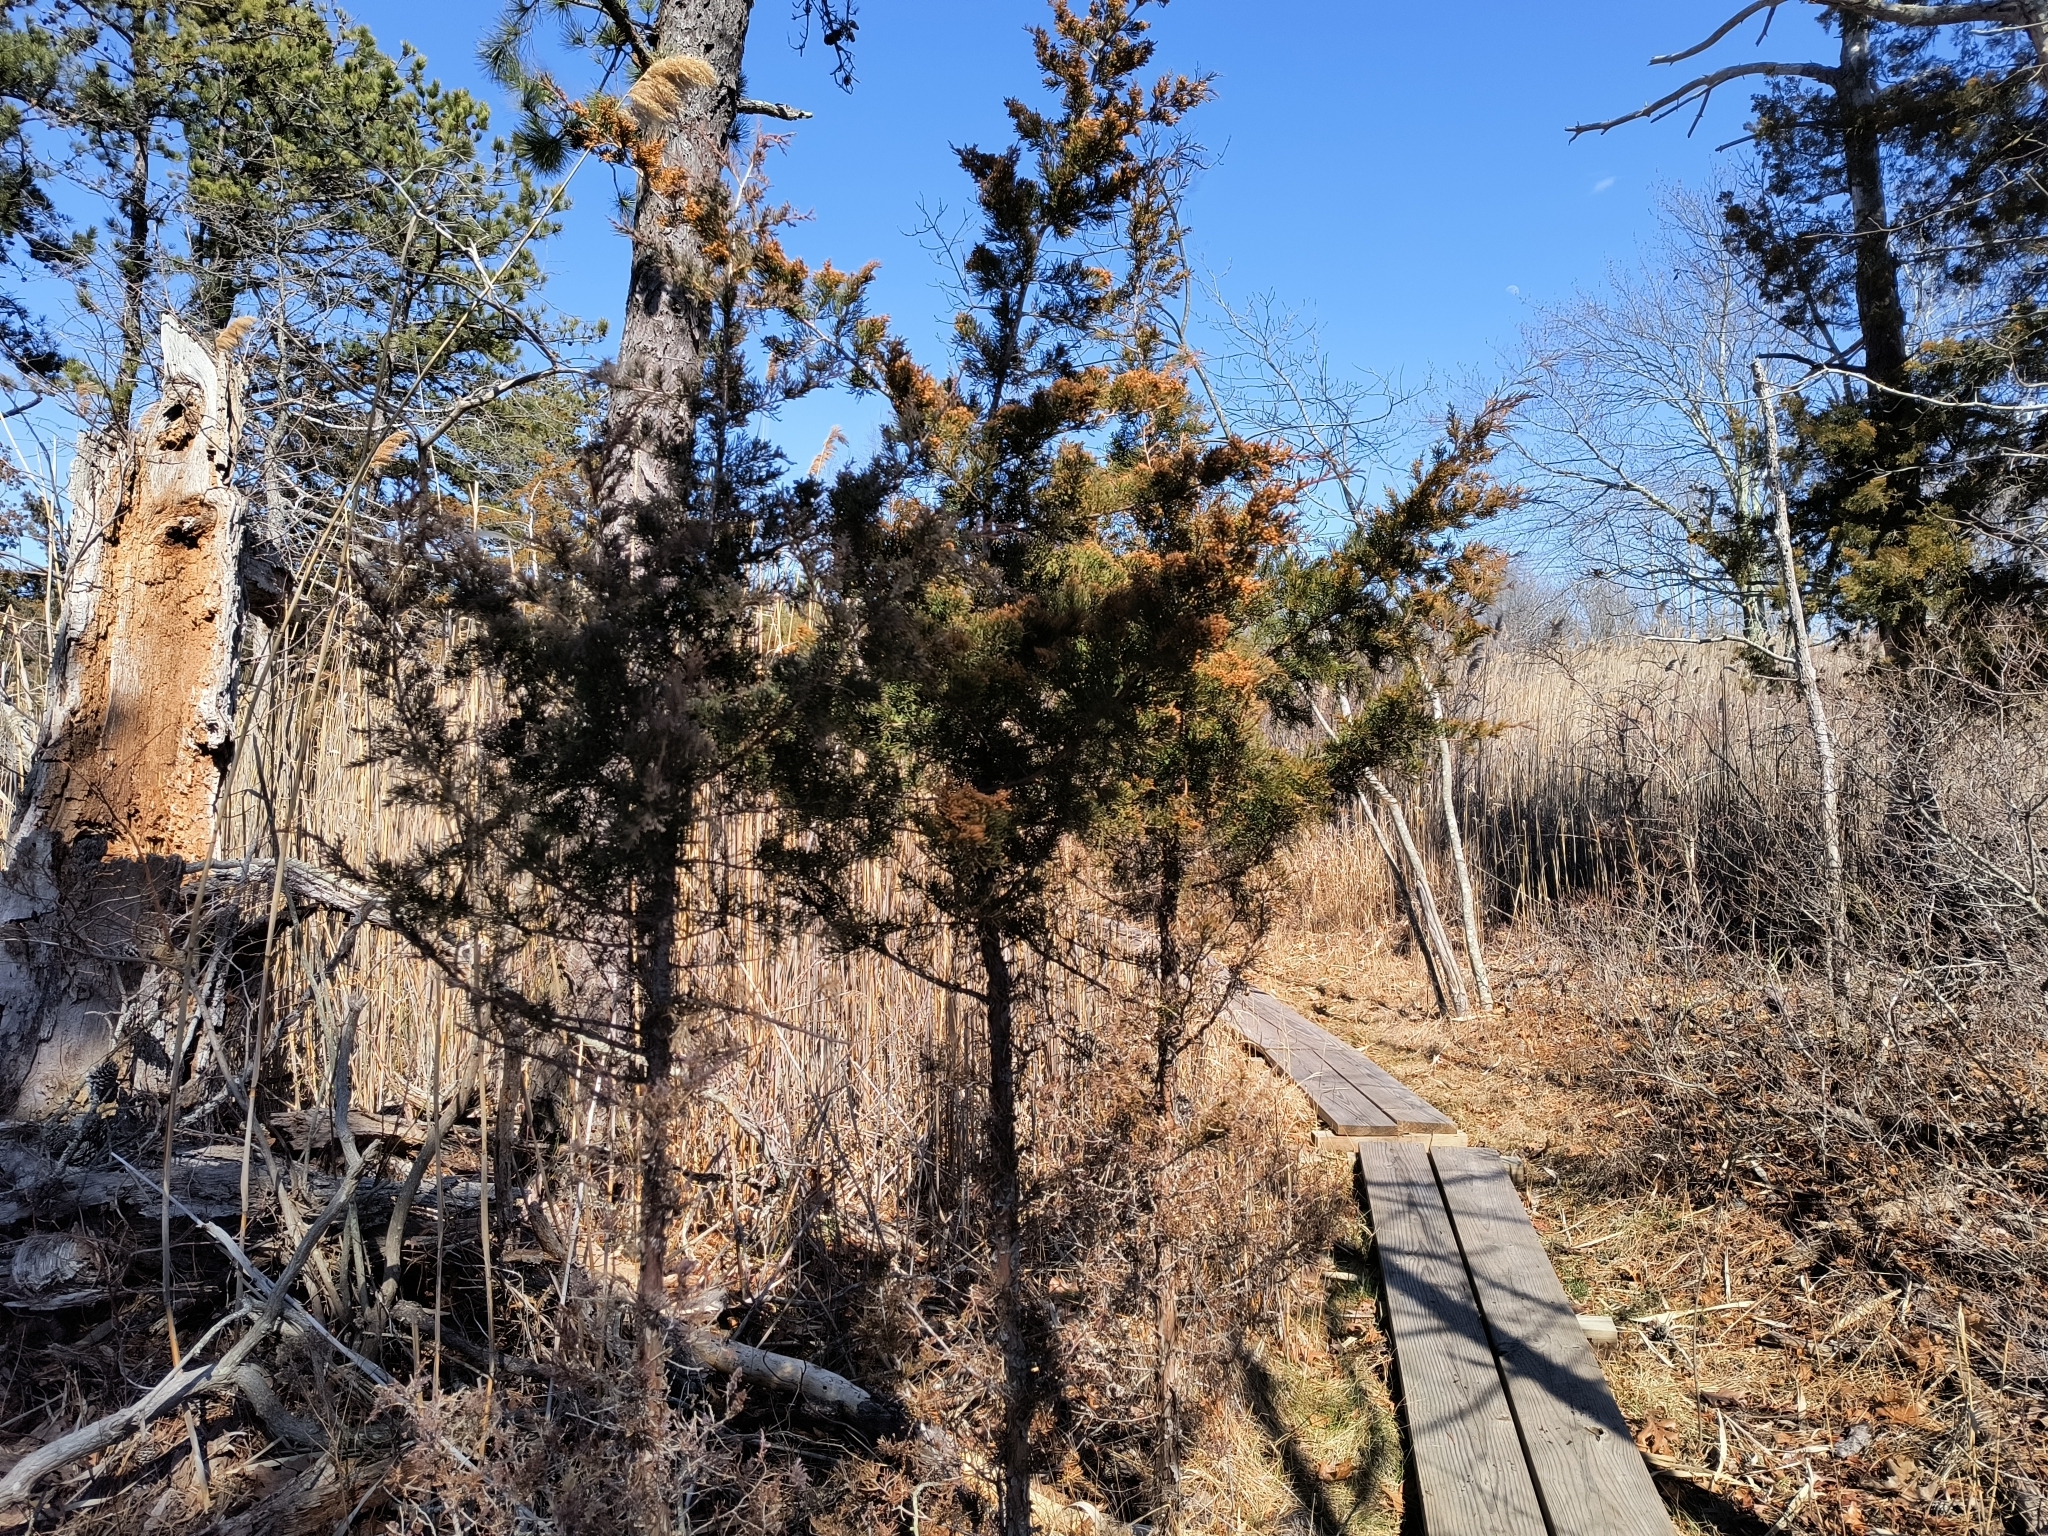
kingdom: Plantae
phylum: Tracheophyta
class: Pinopsida
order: Pinales
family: Cupressaceae
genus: Juniperus
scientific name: Juniperus virginiana
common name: Red juniper
